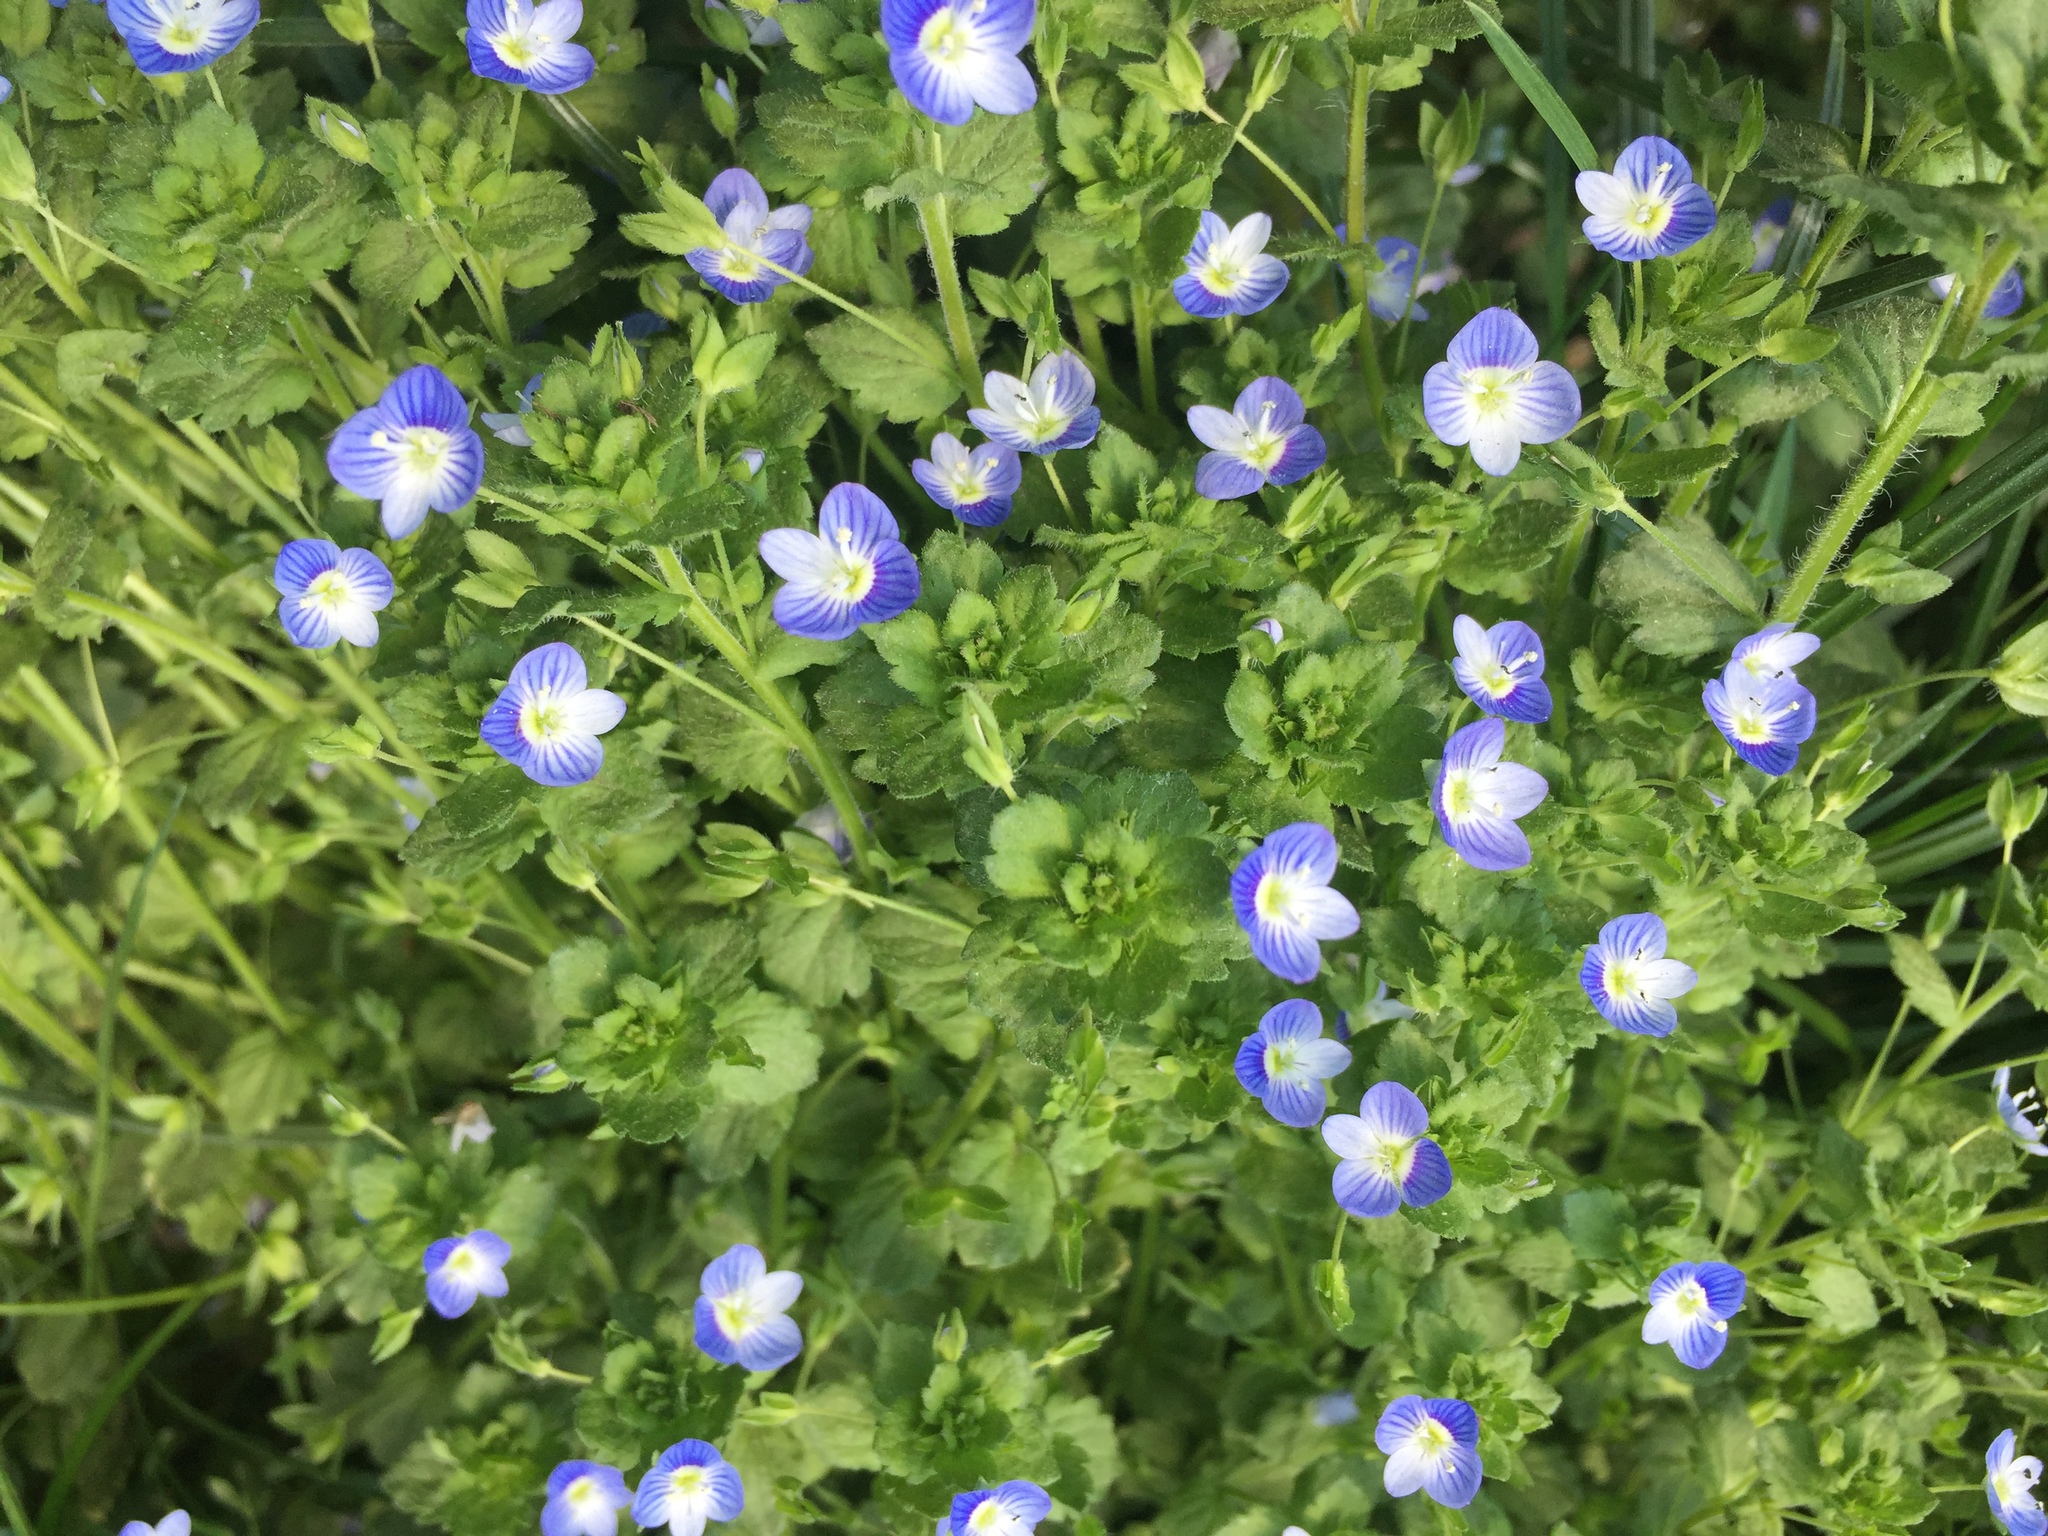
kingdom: Plantae
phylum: Tracheophyta
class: Magnoliopsida
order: Lamiales
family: Plantaginaceae
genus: Veronica
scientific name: Veronica persica
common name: Common field-speedwell
